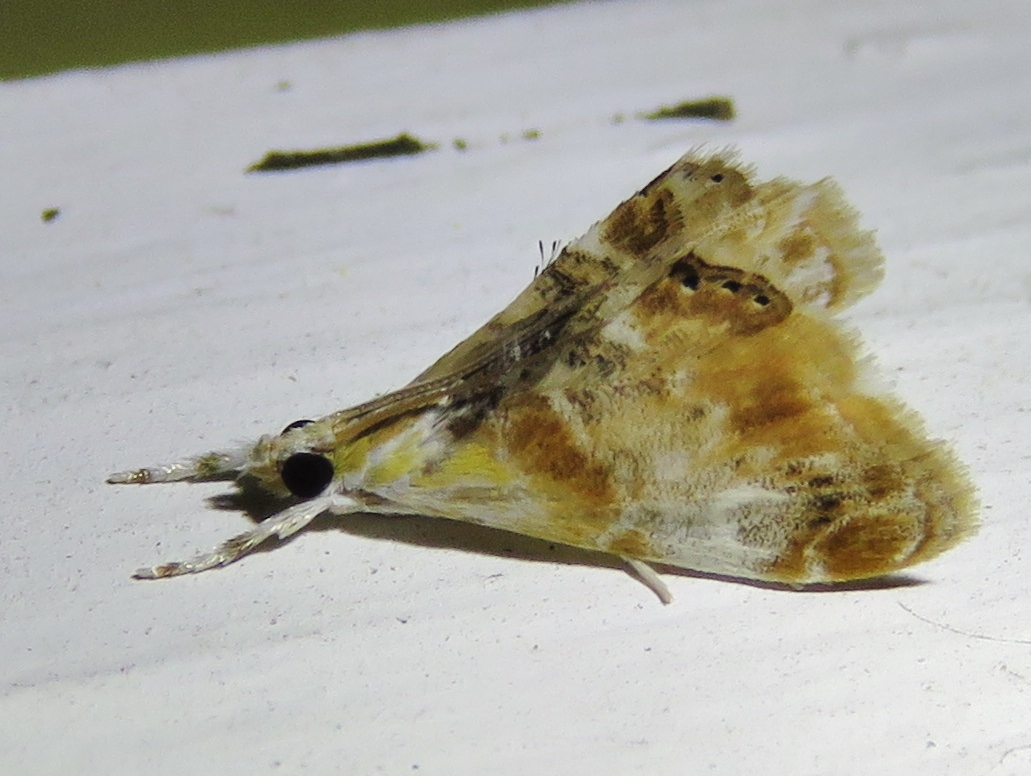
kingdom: Animalia
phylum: Arthropoda
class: Insecta
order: Lepidoptera
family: Crambidae
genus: Dicymolomia
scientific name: Dicymolomia julianalis
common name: Julia's dicymolomia moth
